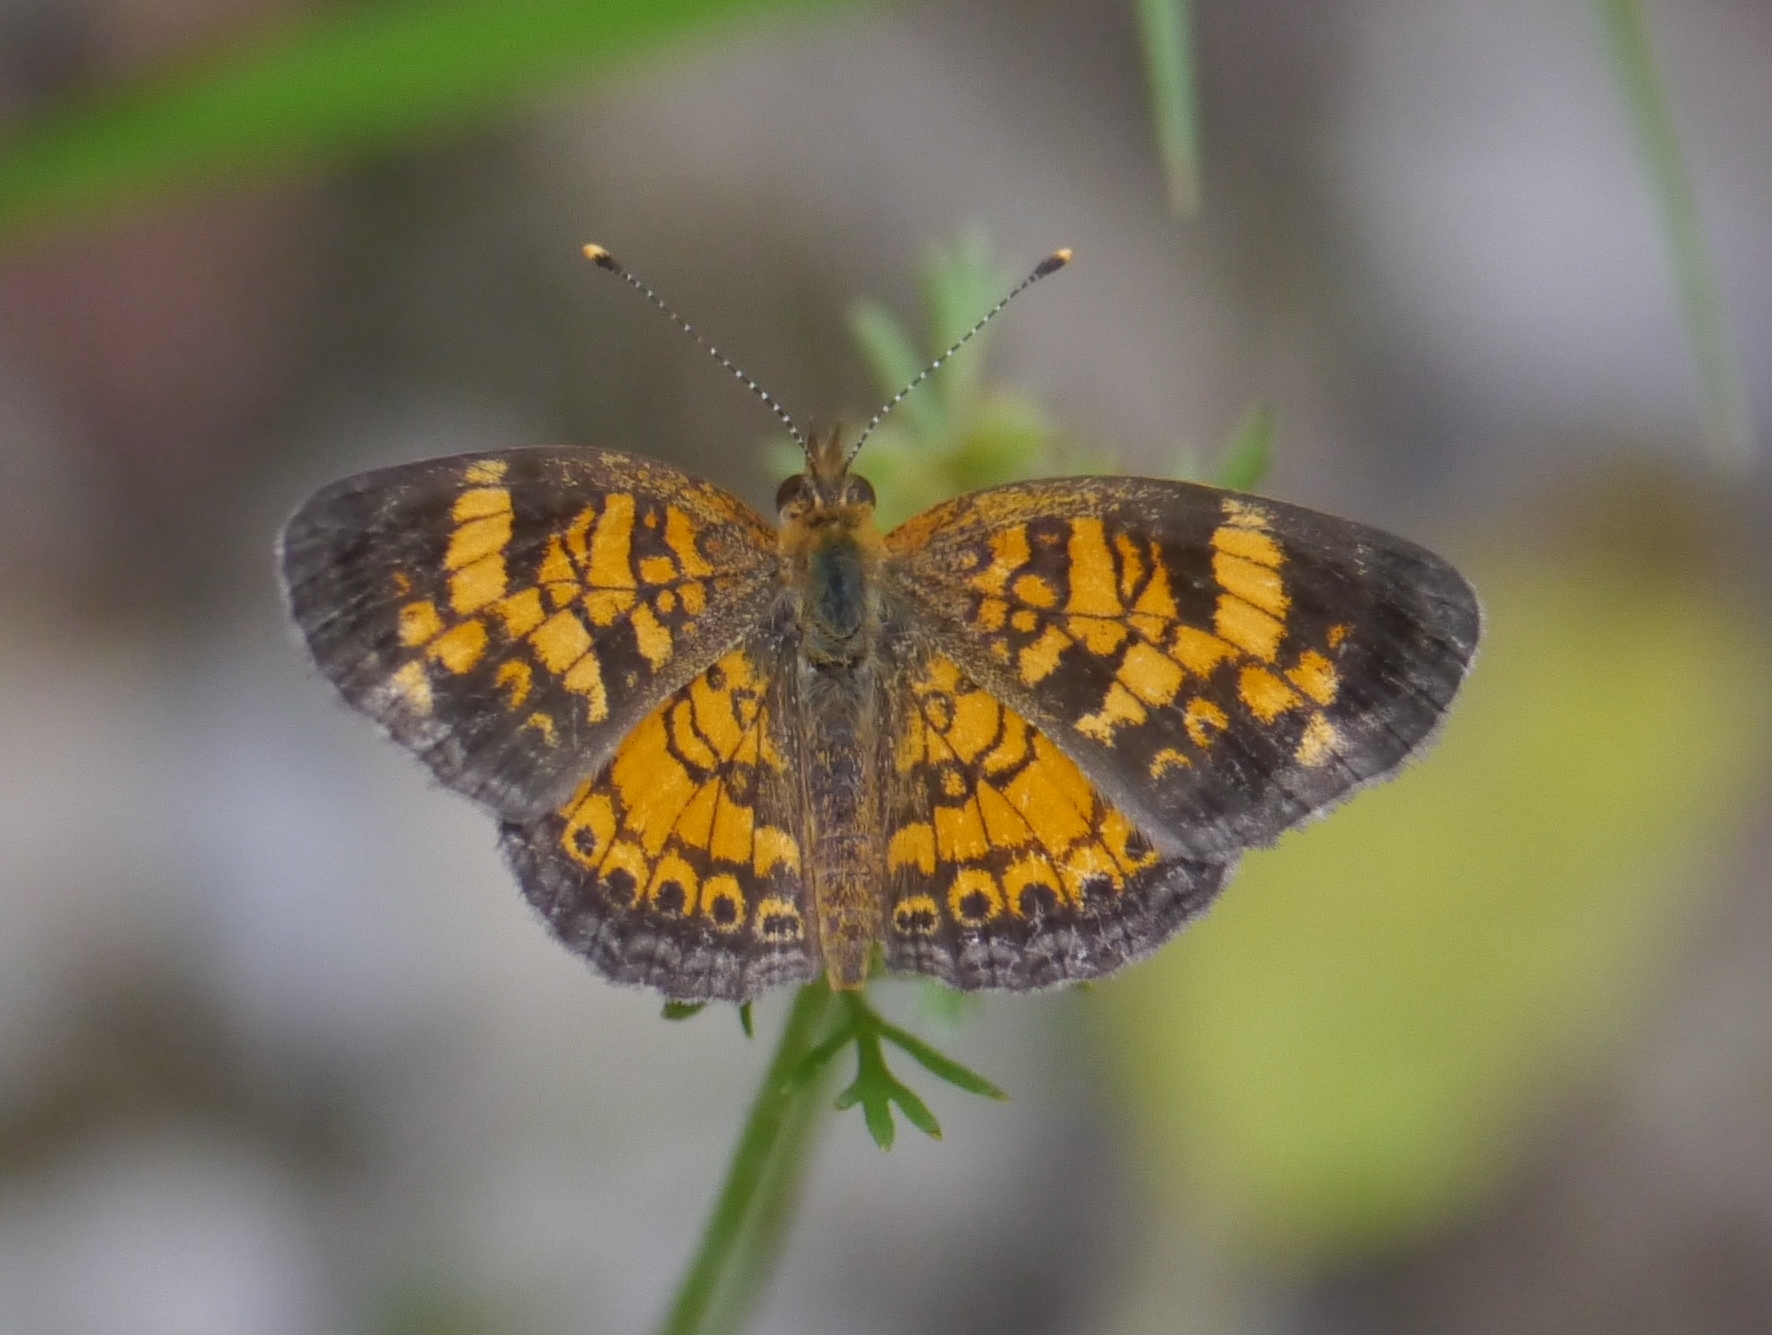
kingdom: Animalia
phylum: Arthropoda
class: Insecta
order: Lepidoptera
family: Nymphalidae
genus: Phyciodes
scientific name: Phyciodes tharos
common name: Pearl crescent
